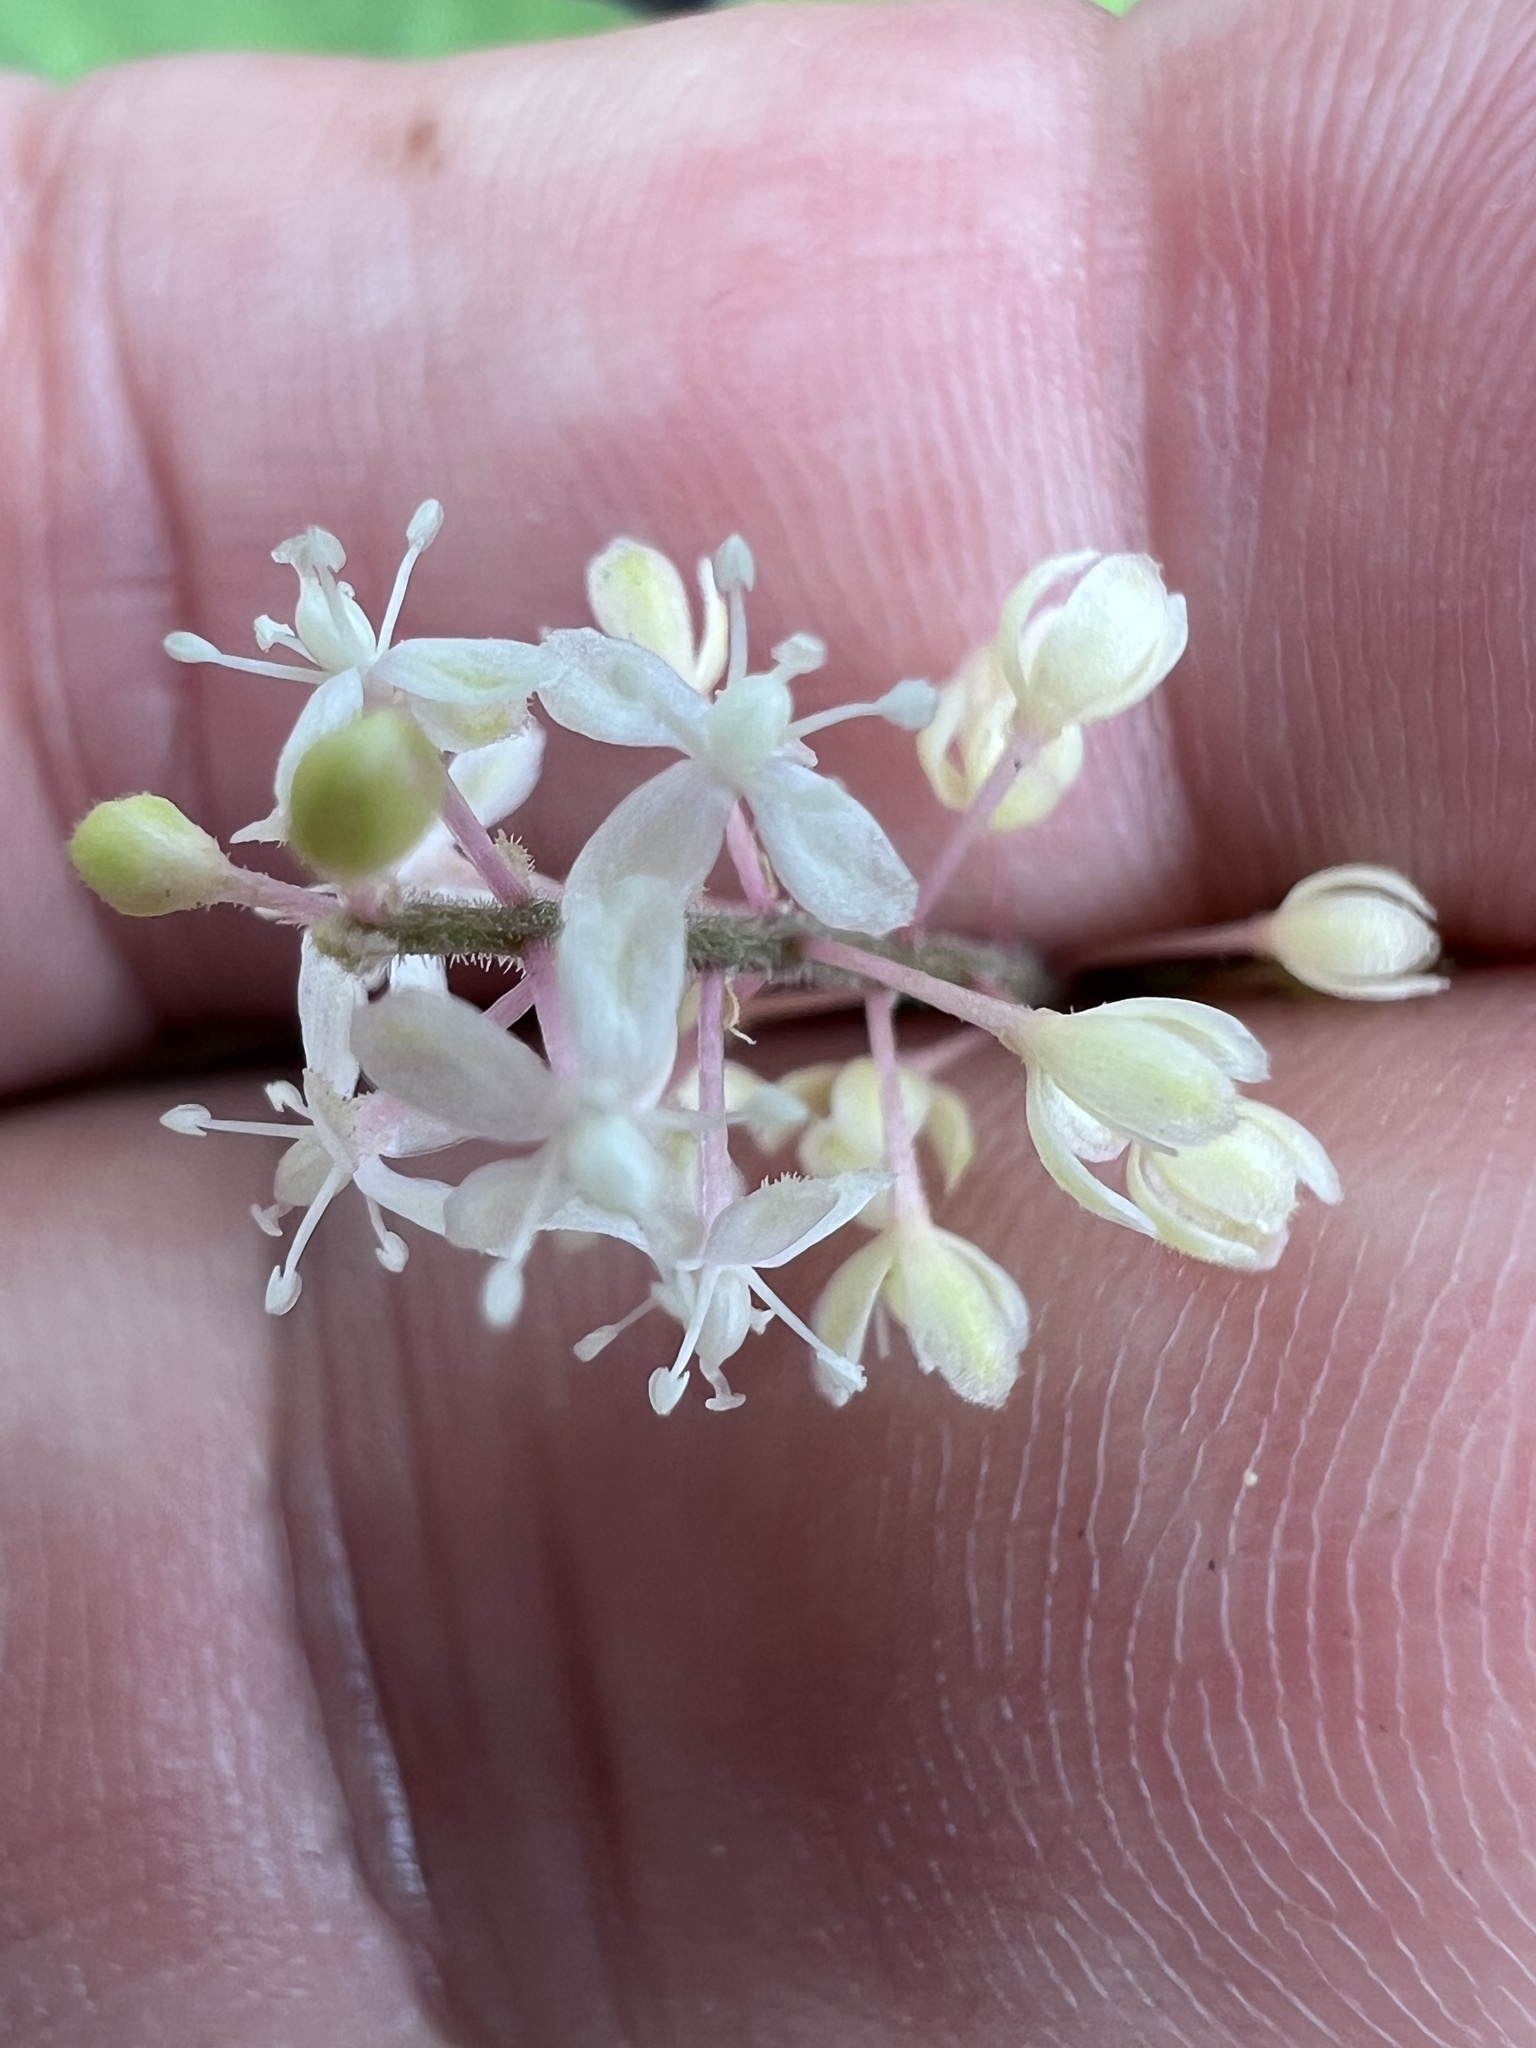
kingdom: Plantae
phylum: Tracheophyta
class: Magnoliopsida
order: Caryophyllales
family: Phytolaccaceae
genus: Rivina
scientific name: Rivina humilis
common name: Rougeplant
